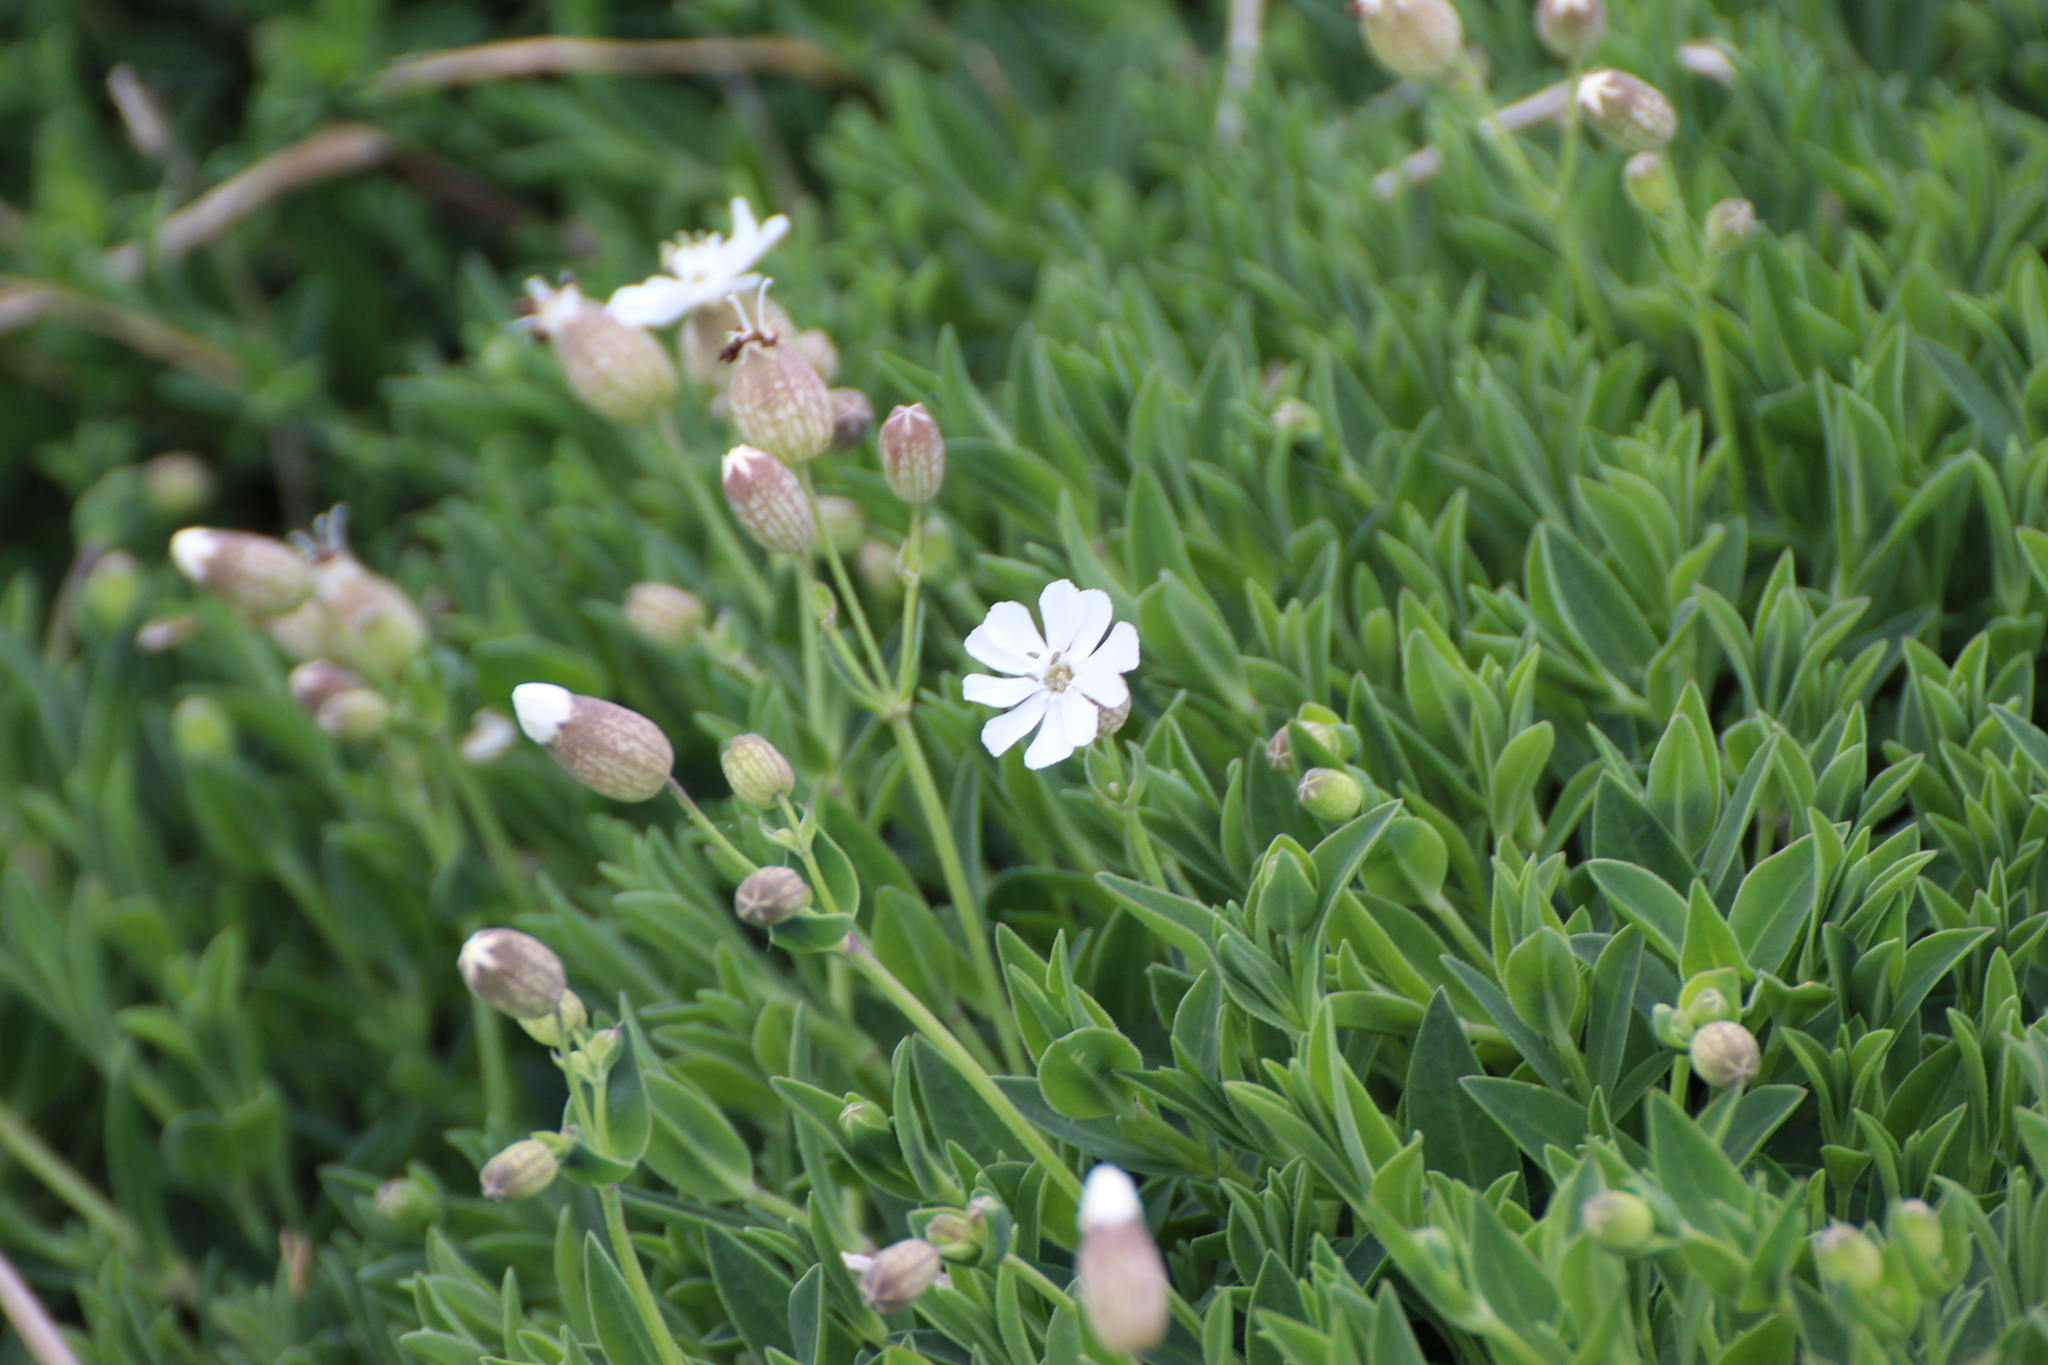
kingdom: Plantae
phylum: Tracheophyta
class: Magnoliopsida
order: Caryophyllales
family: Caryophyllaceae
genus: Silene
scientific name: Silene uniflora
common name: Sea campion
